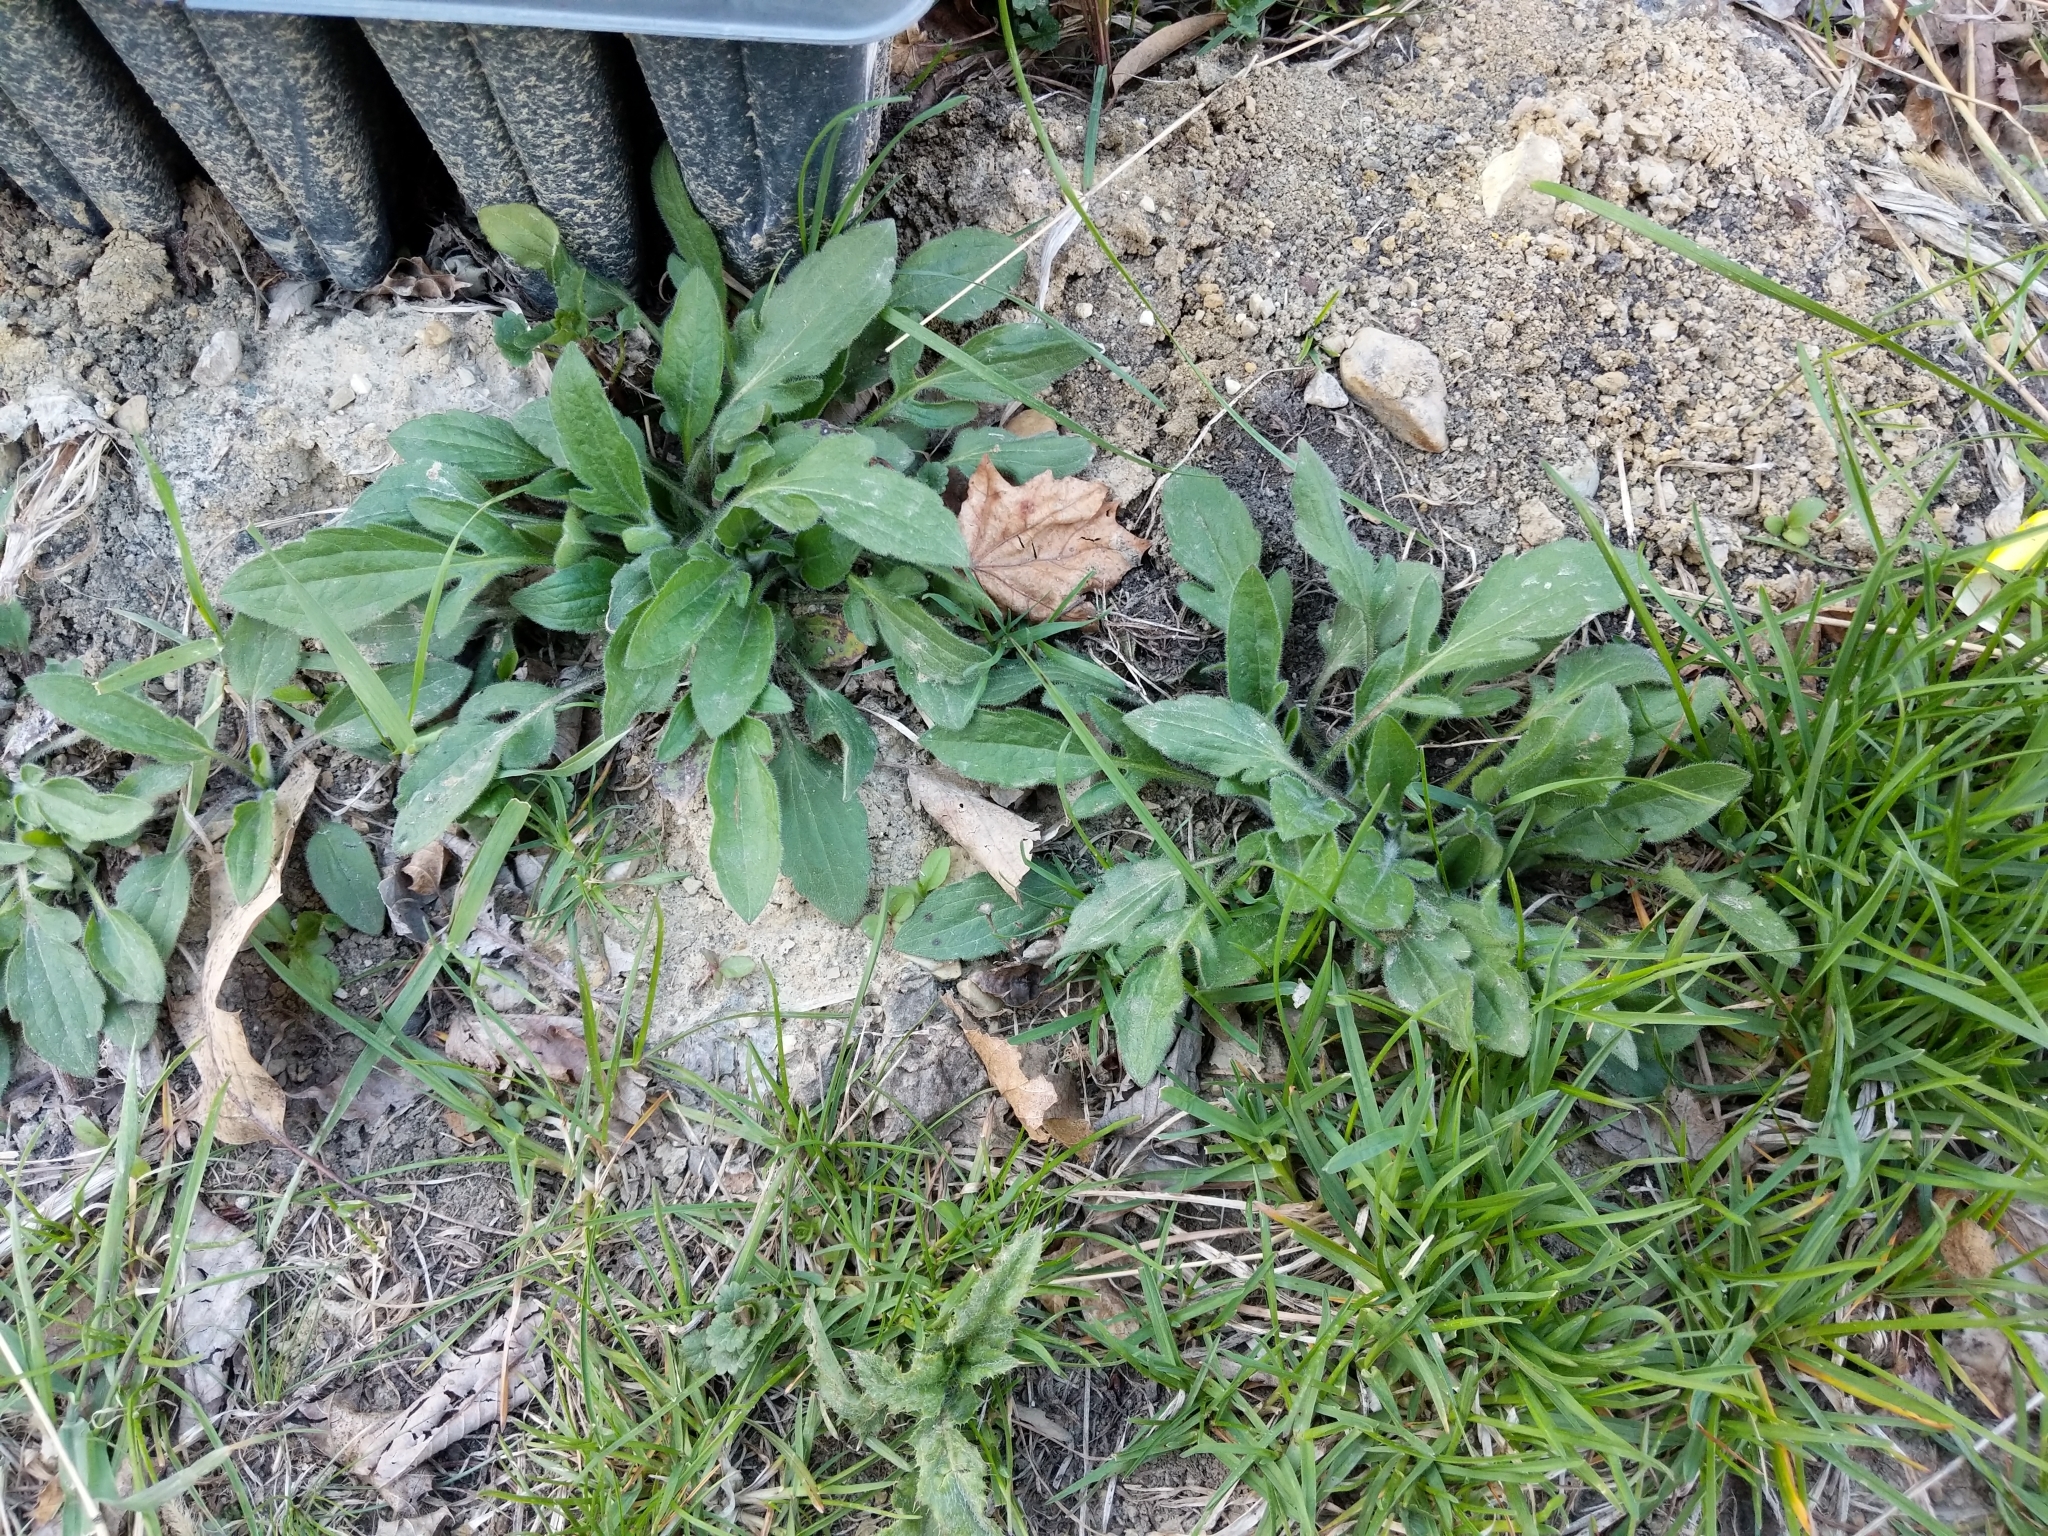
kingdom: Plantae
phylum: Tracheophyta
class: Magnoliopsida
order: Asterales
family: Asteraceae
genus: Rudbeckia
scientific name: Rudbeckia triloba
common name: Thin-leaved coneflower
